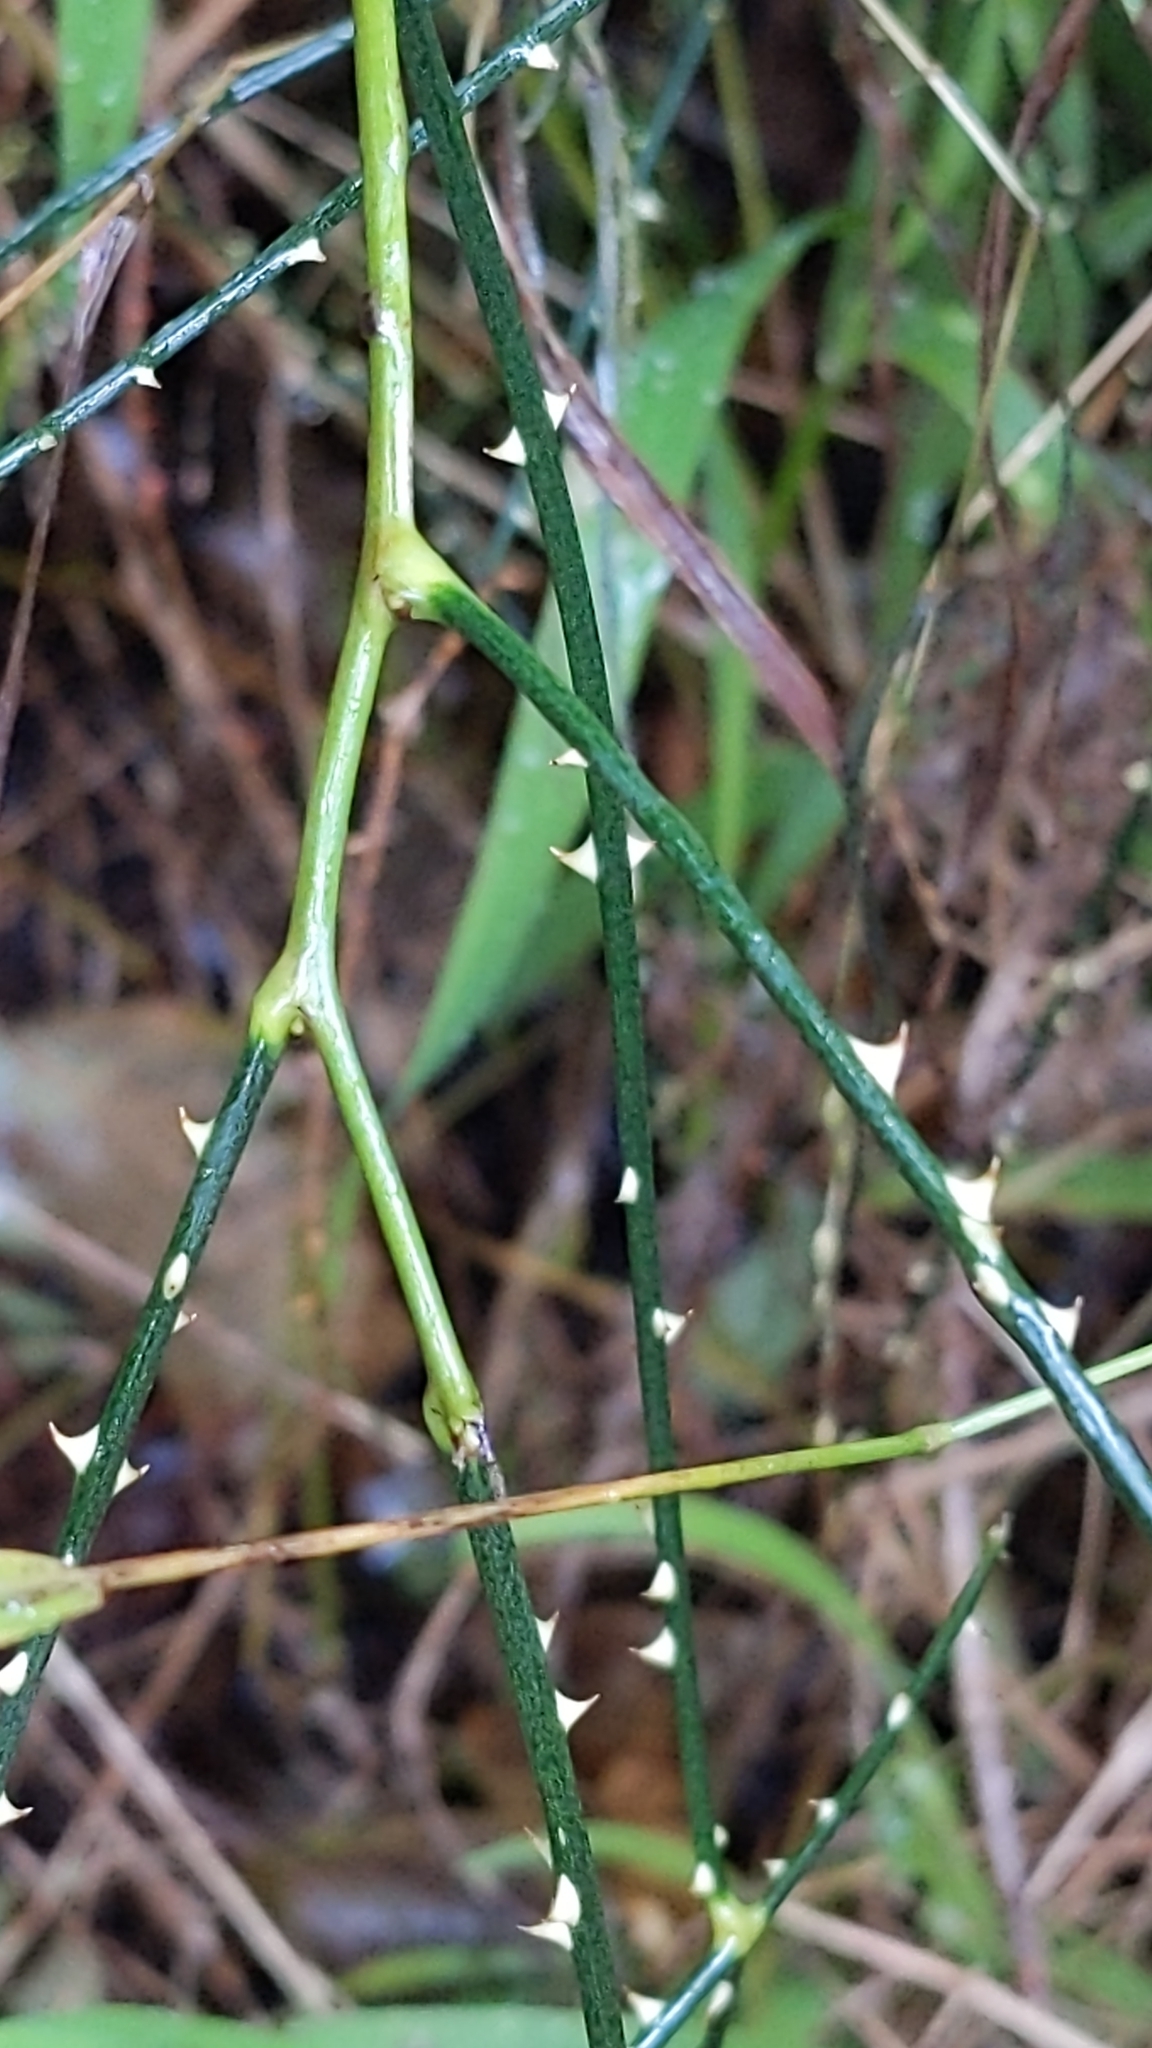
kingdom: Plantae
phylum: Tracheophyta
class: Magnoliopsida
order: Rosales
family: Rosaceae
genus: Rubus
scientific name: Rubus squarrosus
